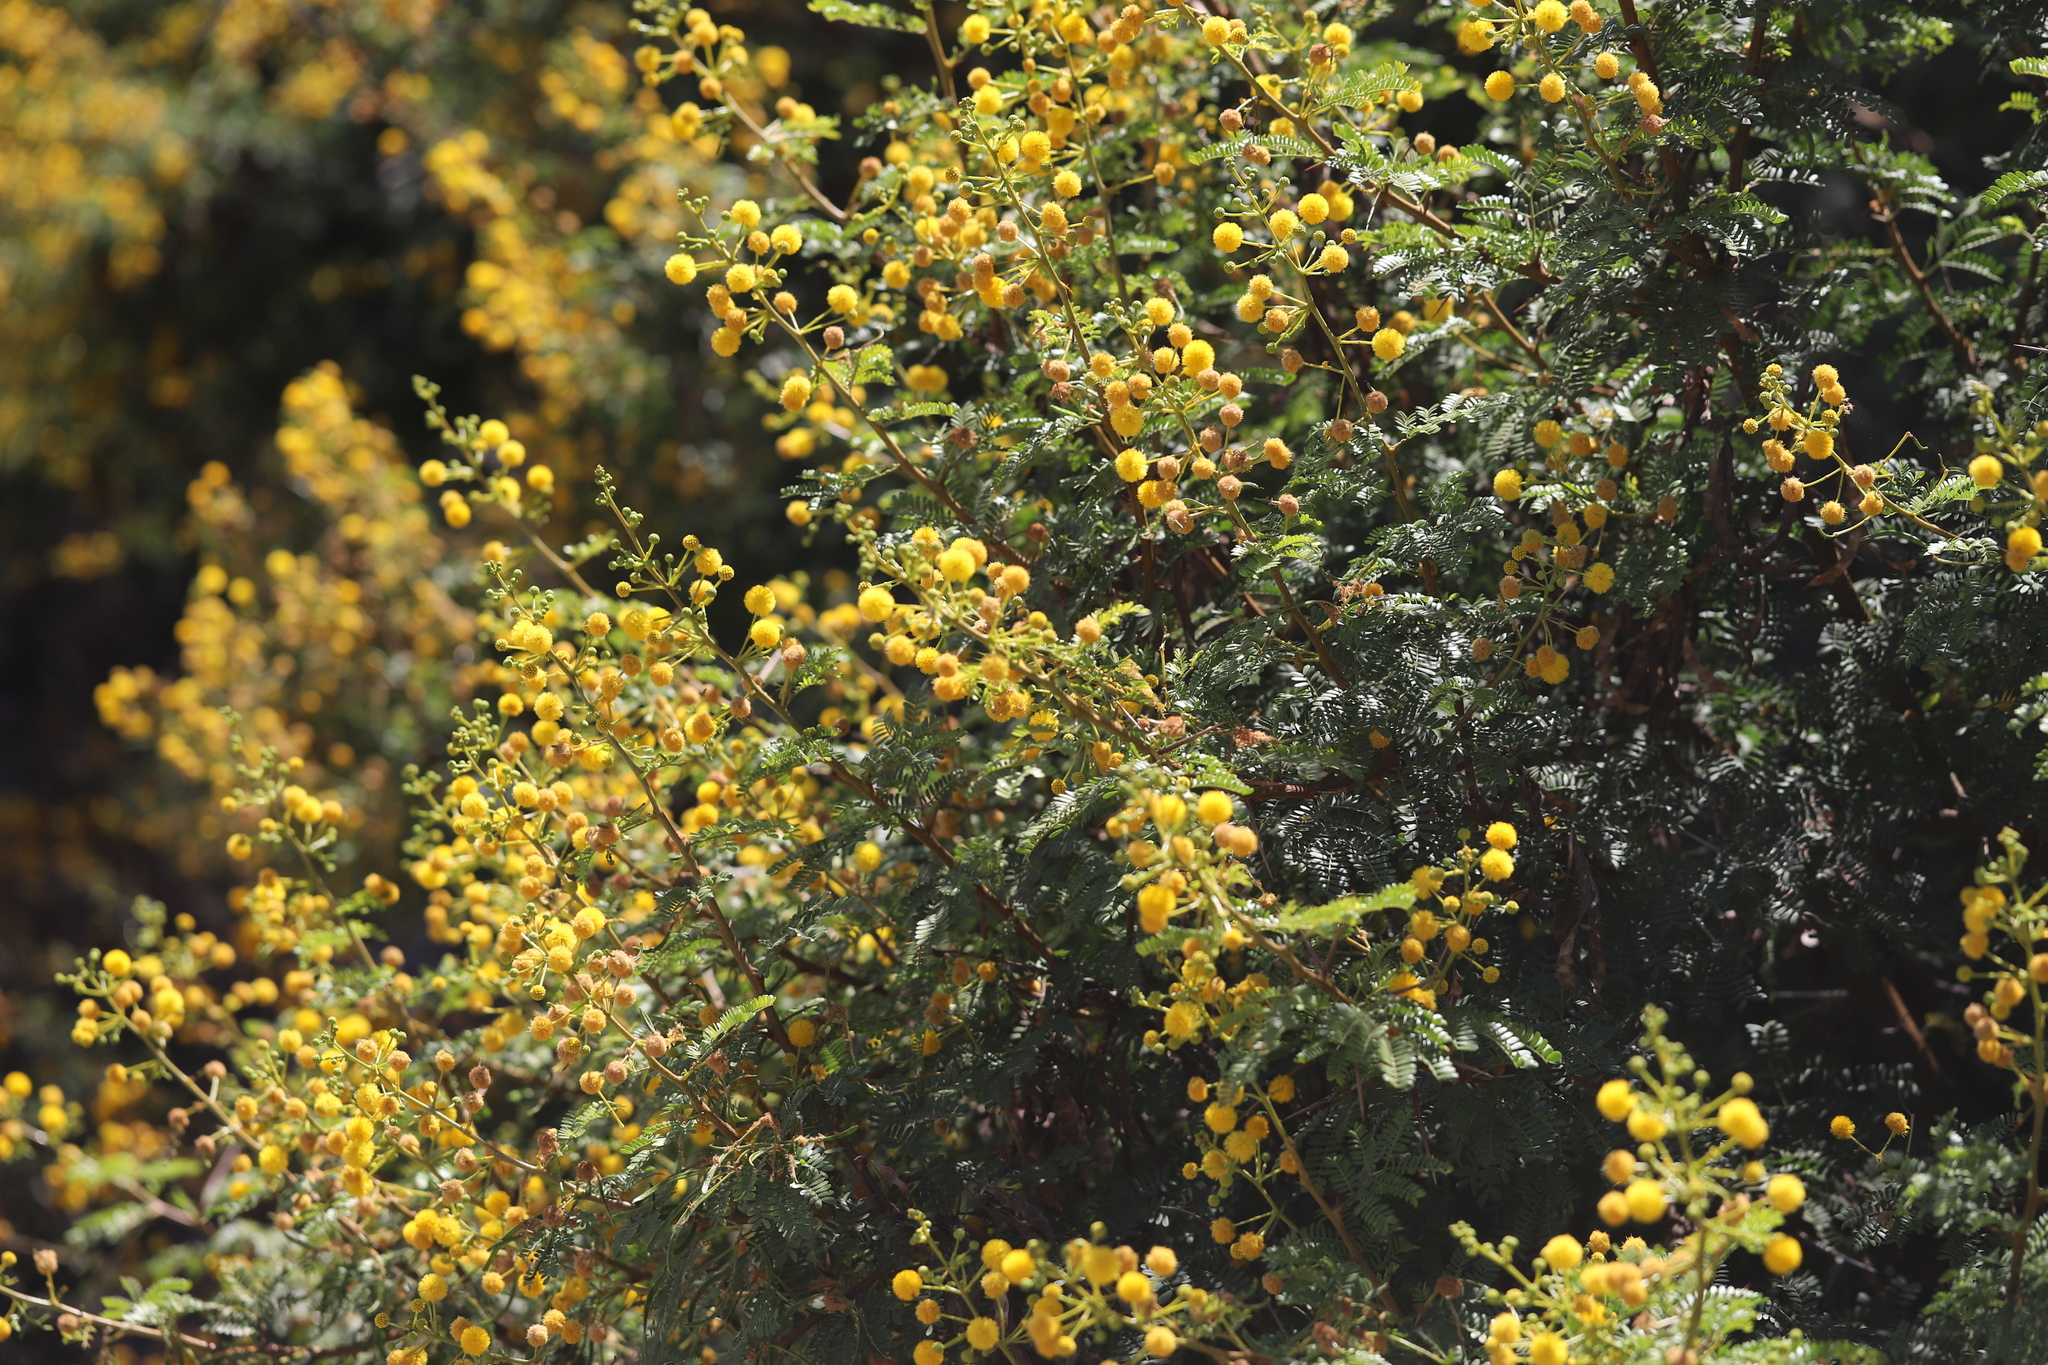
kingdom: Plantae
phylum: Tracheophyta
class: Magnoliopsida
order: Fabales
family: Fabaceae
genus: Vachellia
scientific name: Vachellia karroo
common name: Sweet thorn
